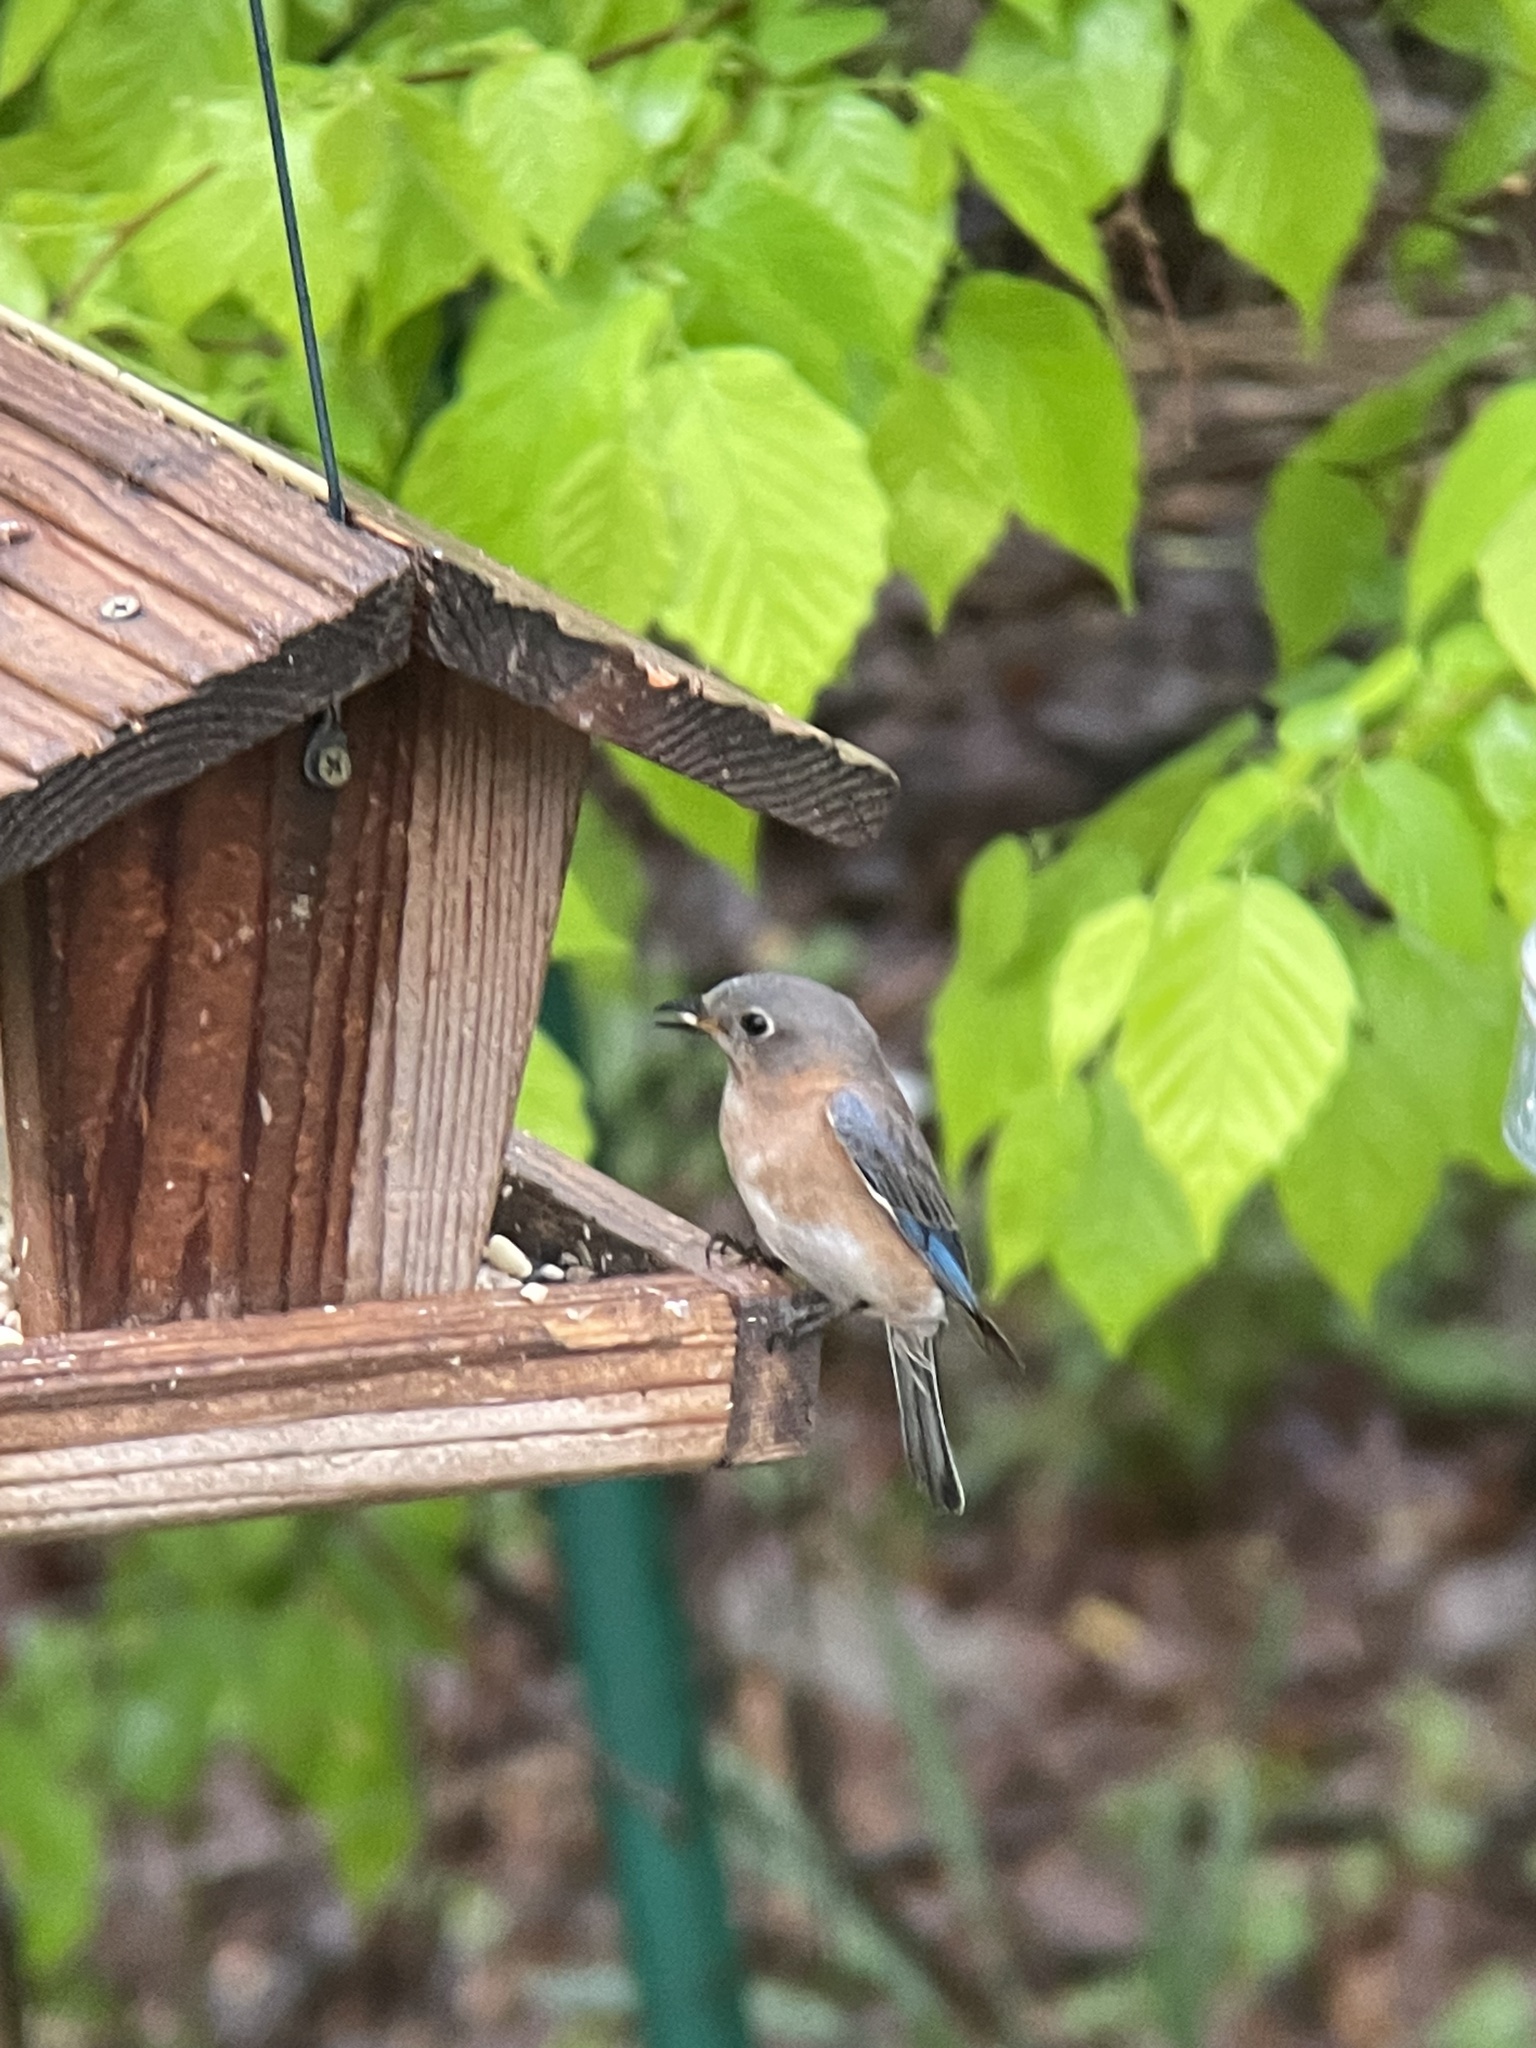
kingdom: Animalia
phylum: Chordata
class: Aves
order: Passeriformes
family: Turdidae
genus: Sialia
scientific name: Sialia sialis
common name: Eastern bluebird
